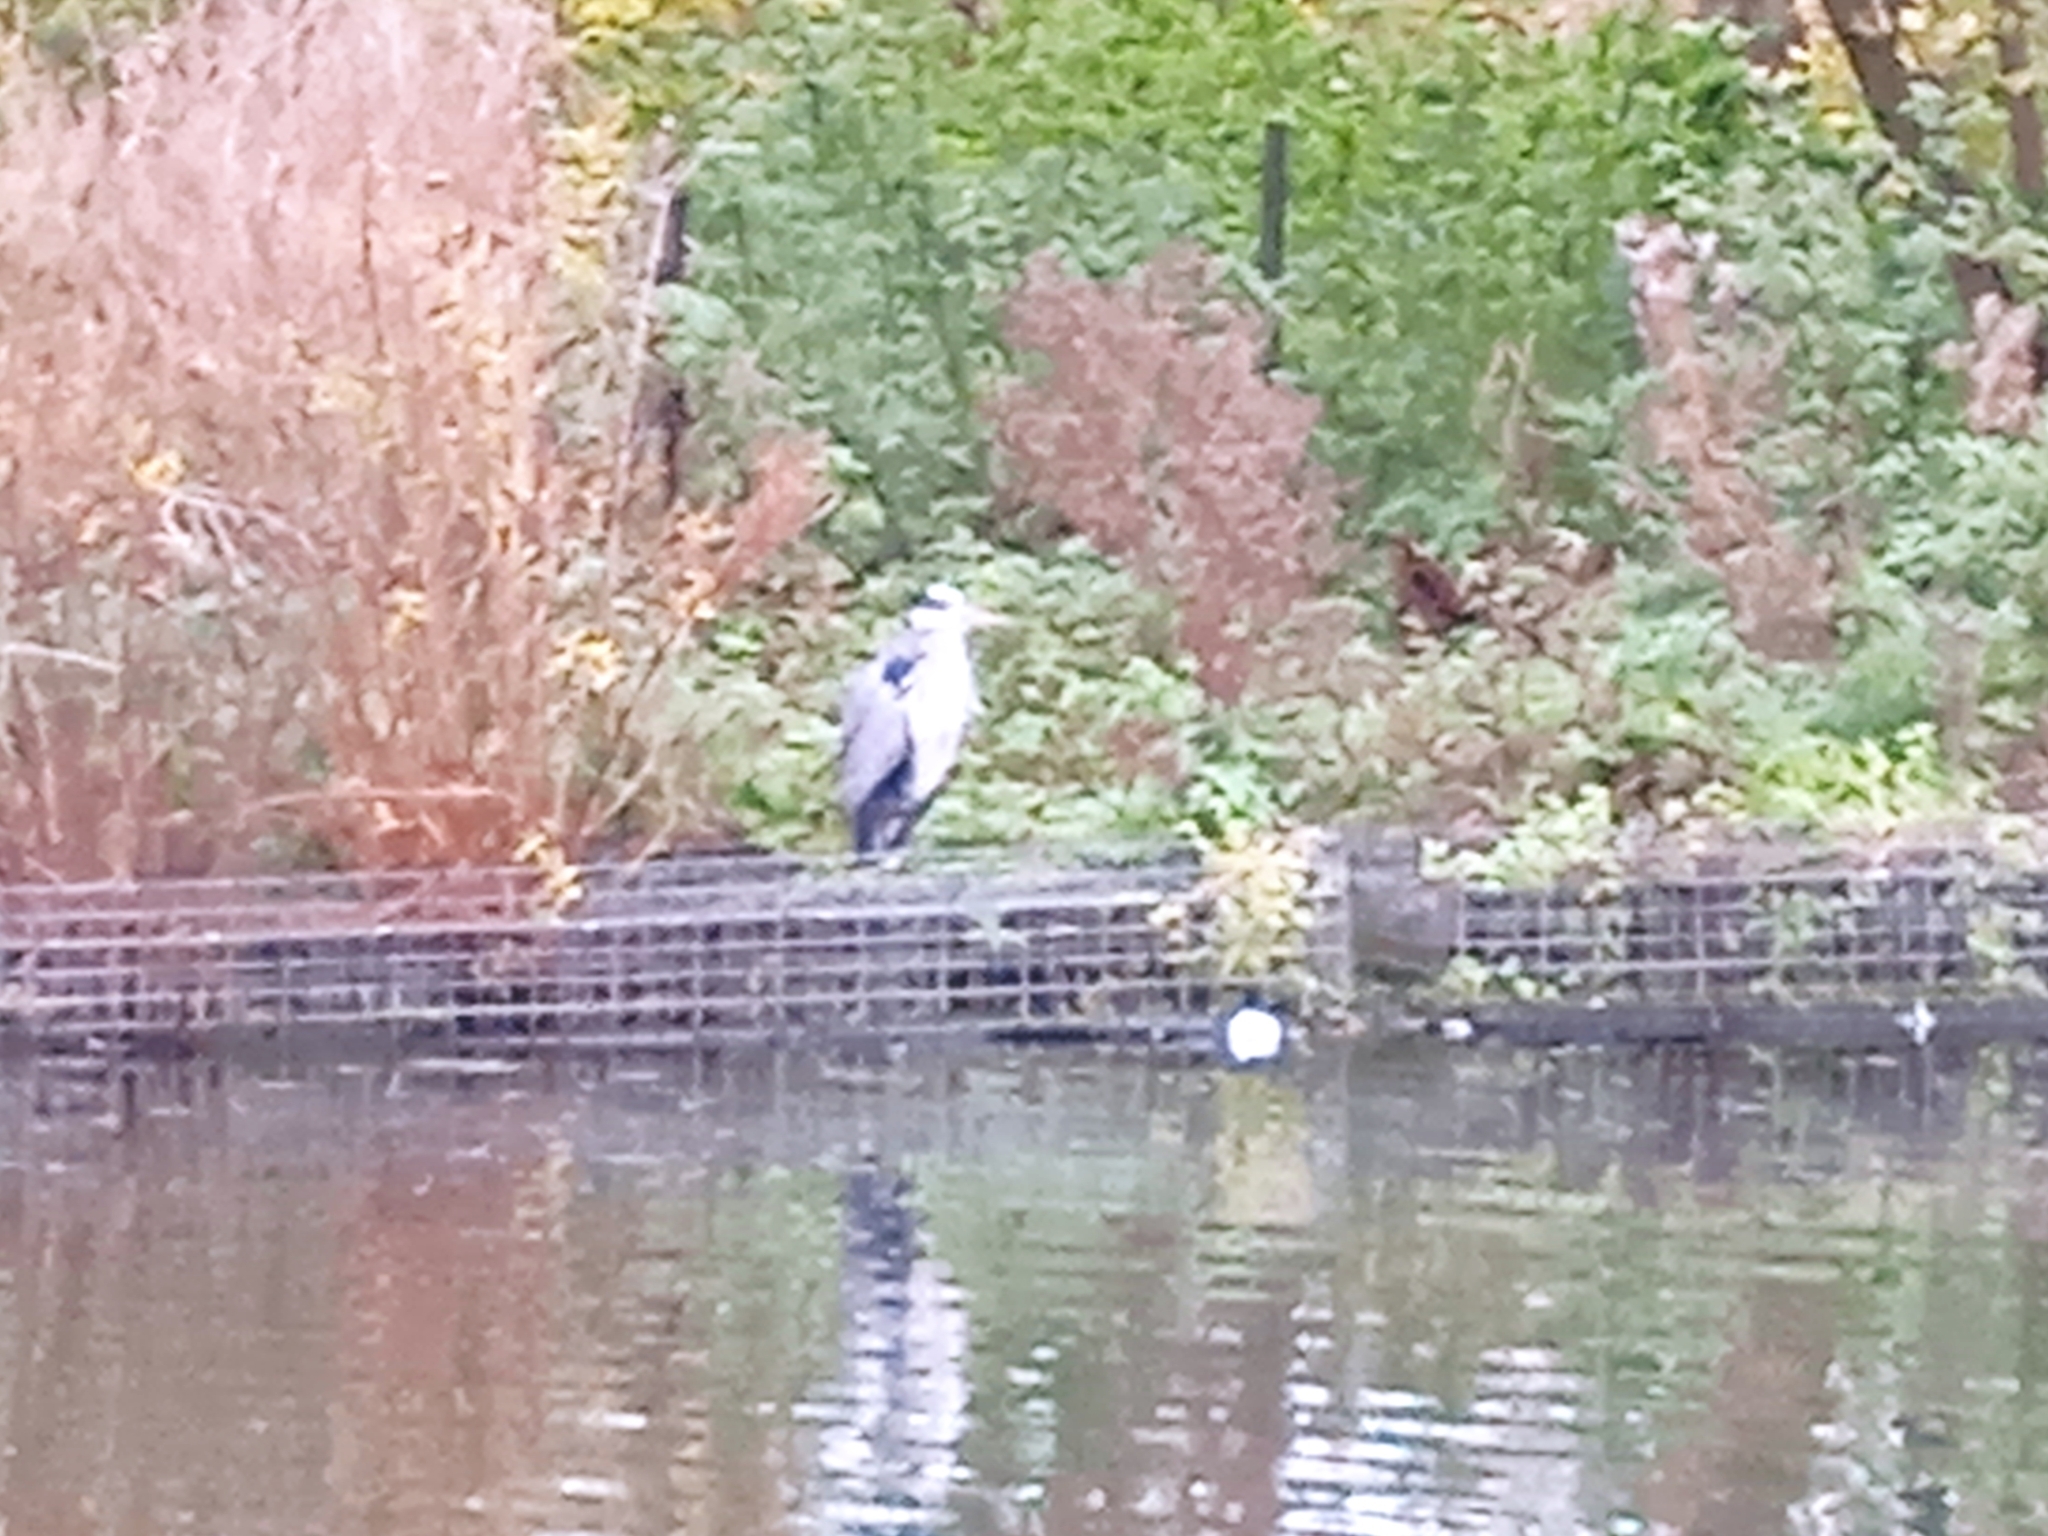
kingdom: Animalia
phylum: Chordata
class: Aves
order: Pelecaniformes
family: Ardeidae
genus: Ardea
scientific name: Ardea cinerea
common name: Grey heron
